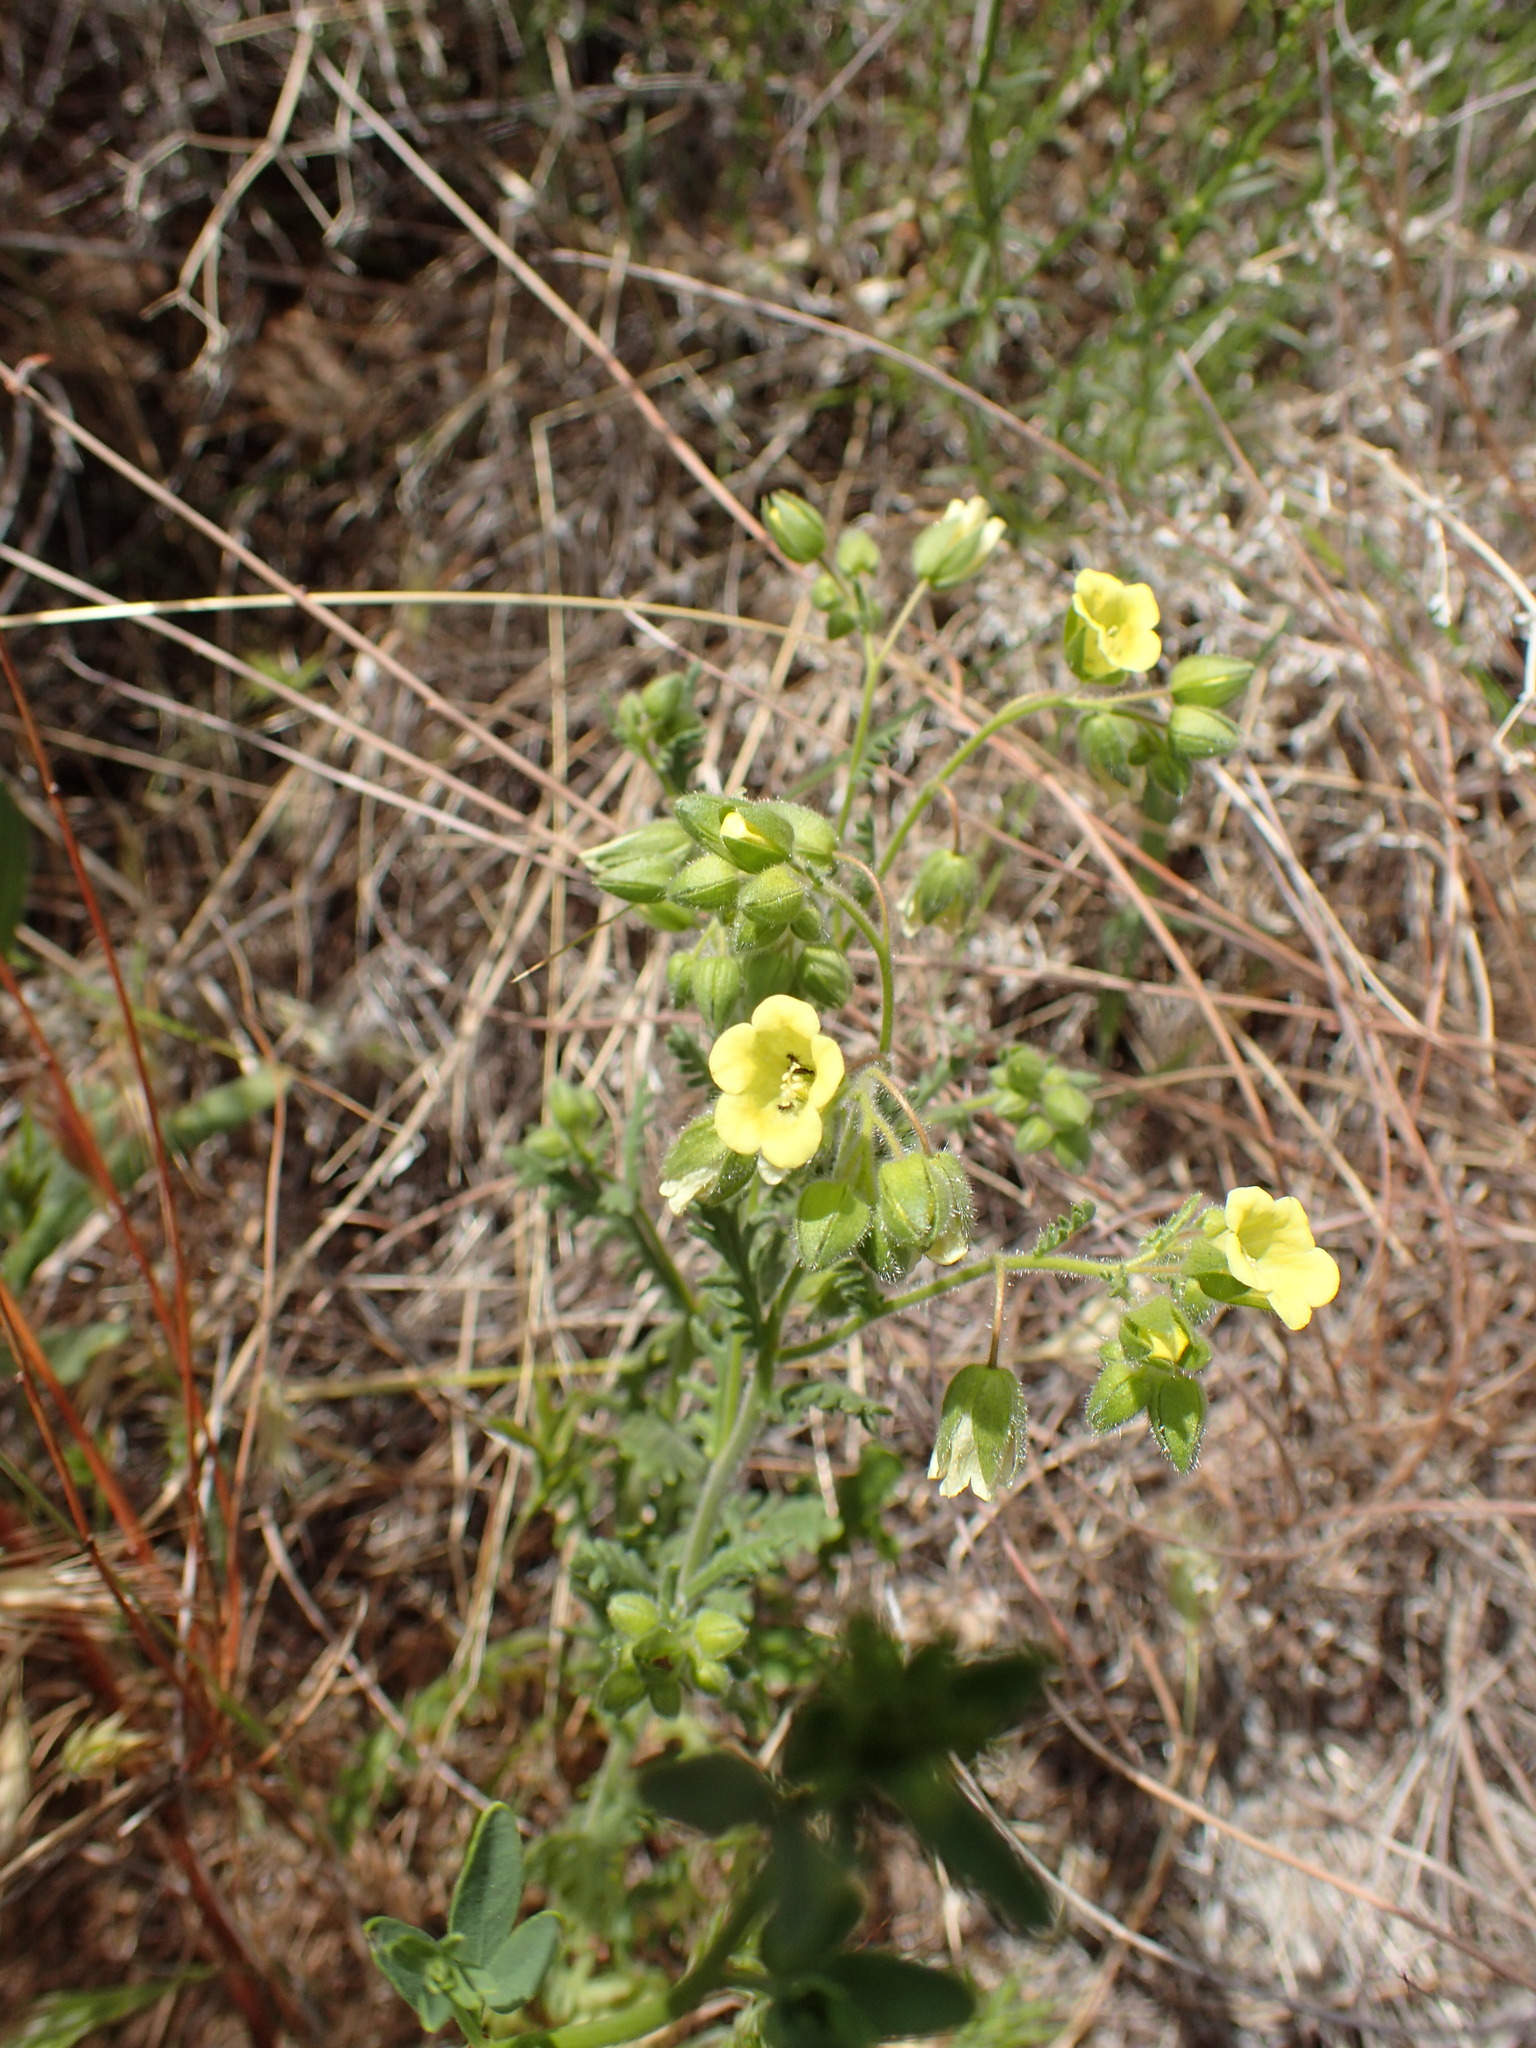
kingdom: Plantae
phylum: Tracheophyta
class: Magnoliopsida
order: Boraginales
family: Hydrophyllaceae
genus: Emmenanthe
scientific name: Emmenanthe penduliflora
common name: Whispering-bells
